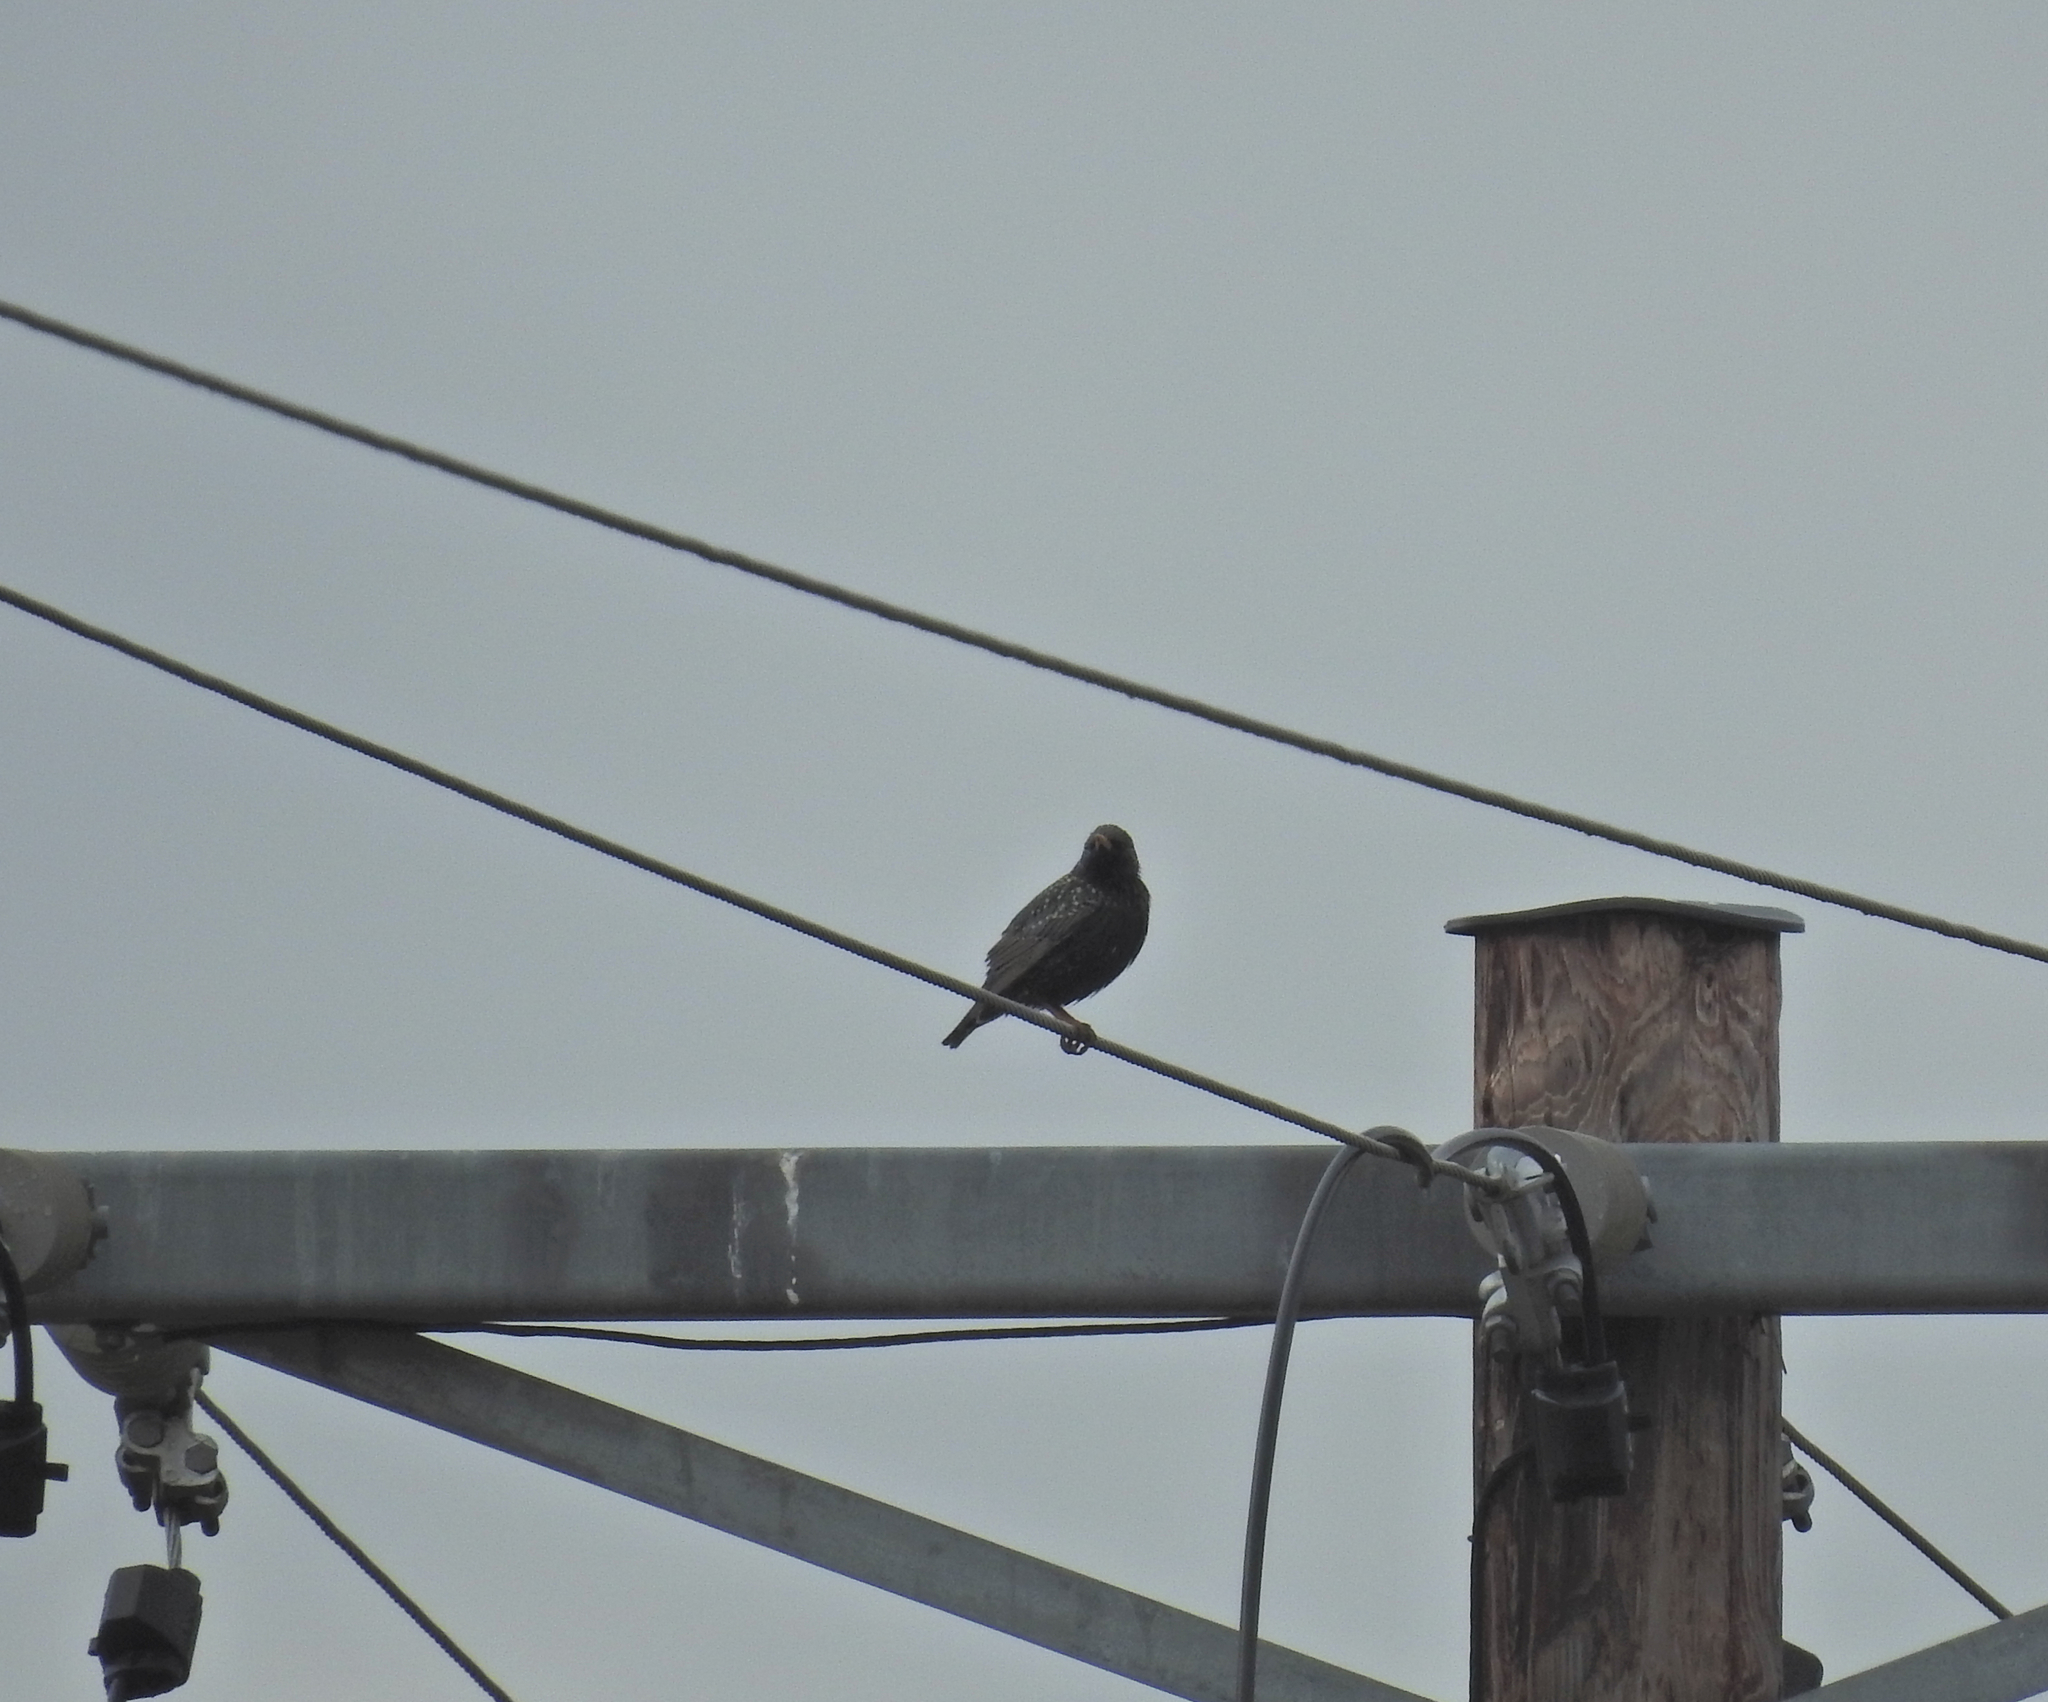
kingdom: Animalia
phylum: Chordata
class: Aves
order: Passeriformes
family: Sturnidae
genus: Sturnus
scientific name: Sturnus vulgaris
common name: Common starling
